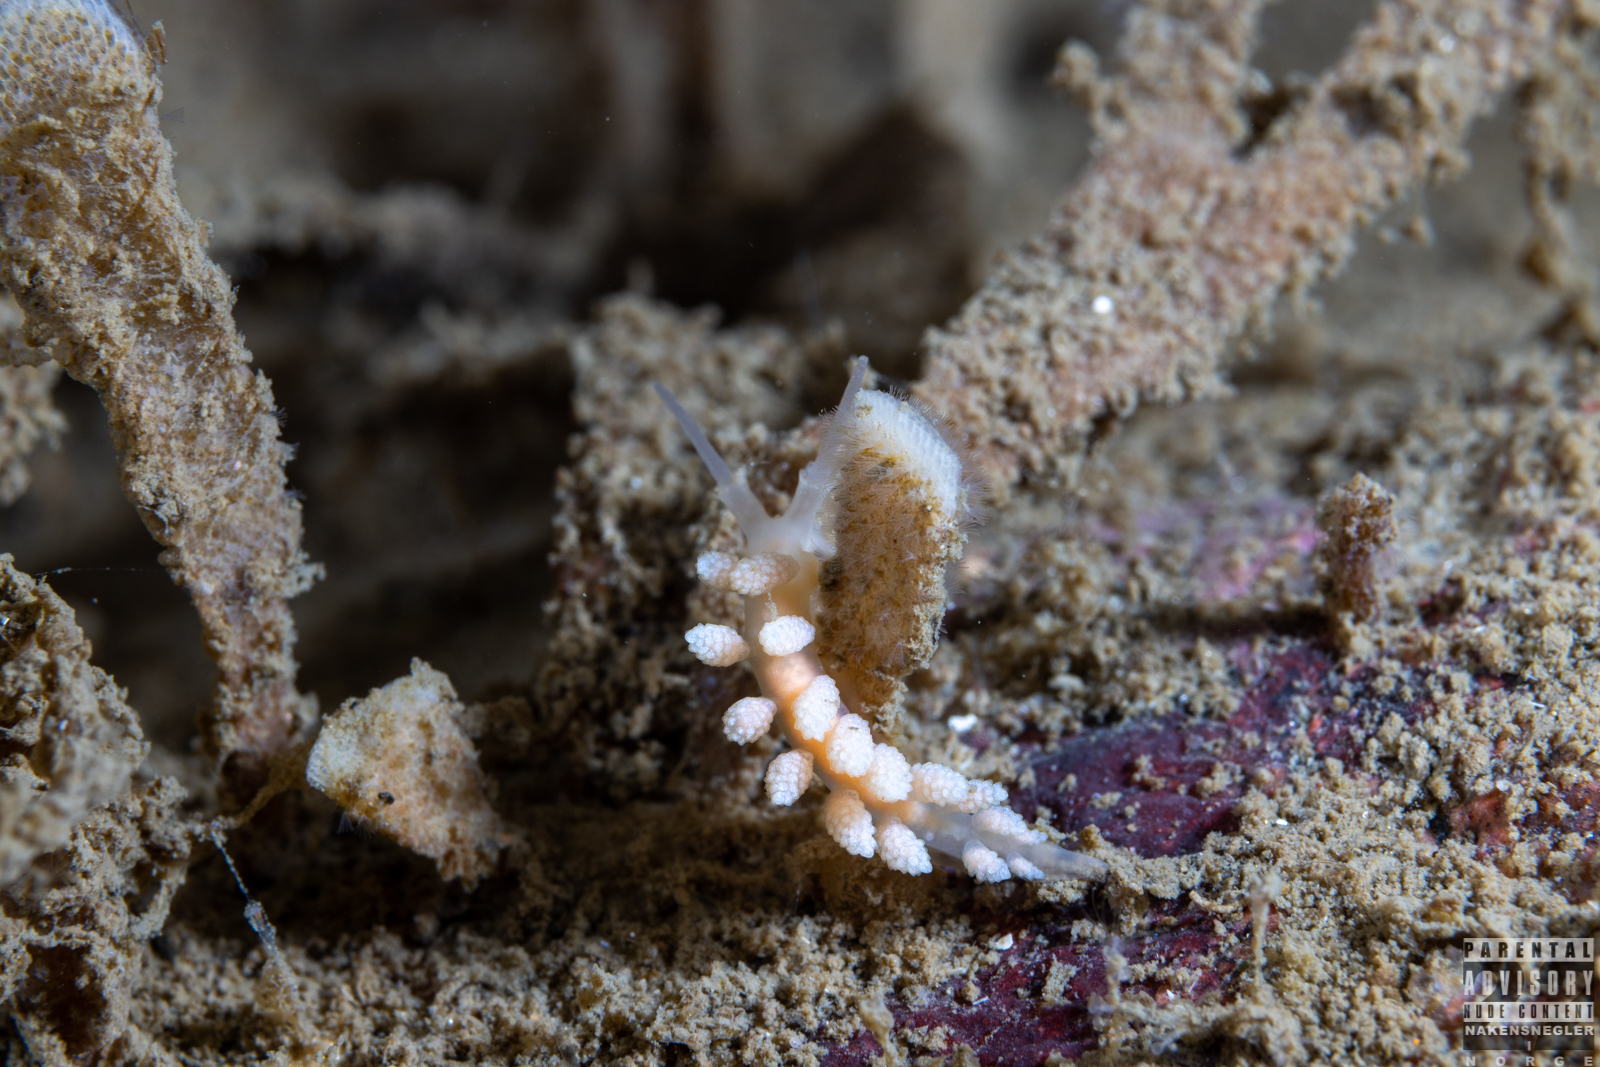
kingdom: Animalia
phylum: Mollusca
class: Gastropoda
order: Nudibranchia
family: Dotidae
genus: Doto
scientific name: Doto fragilis
